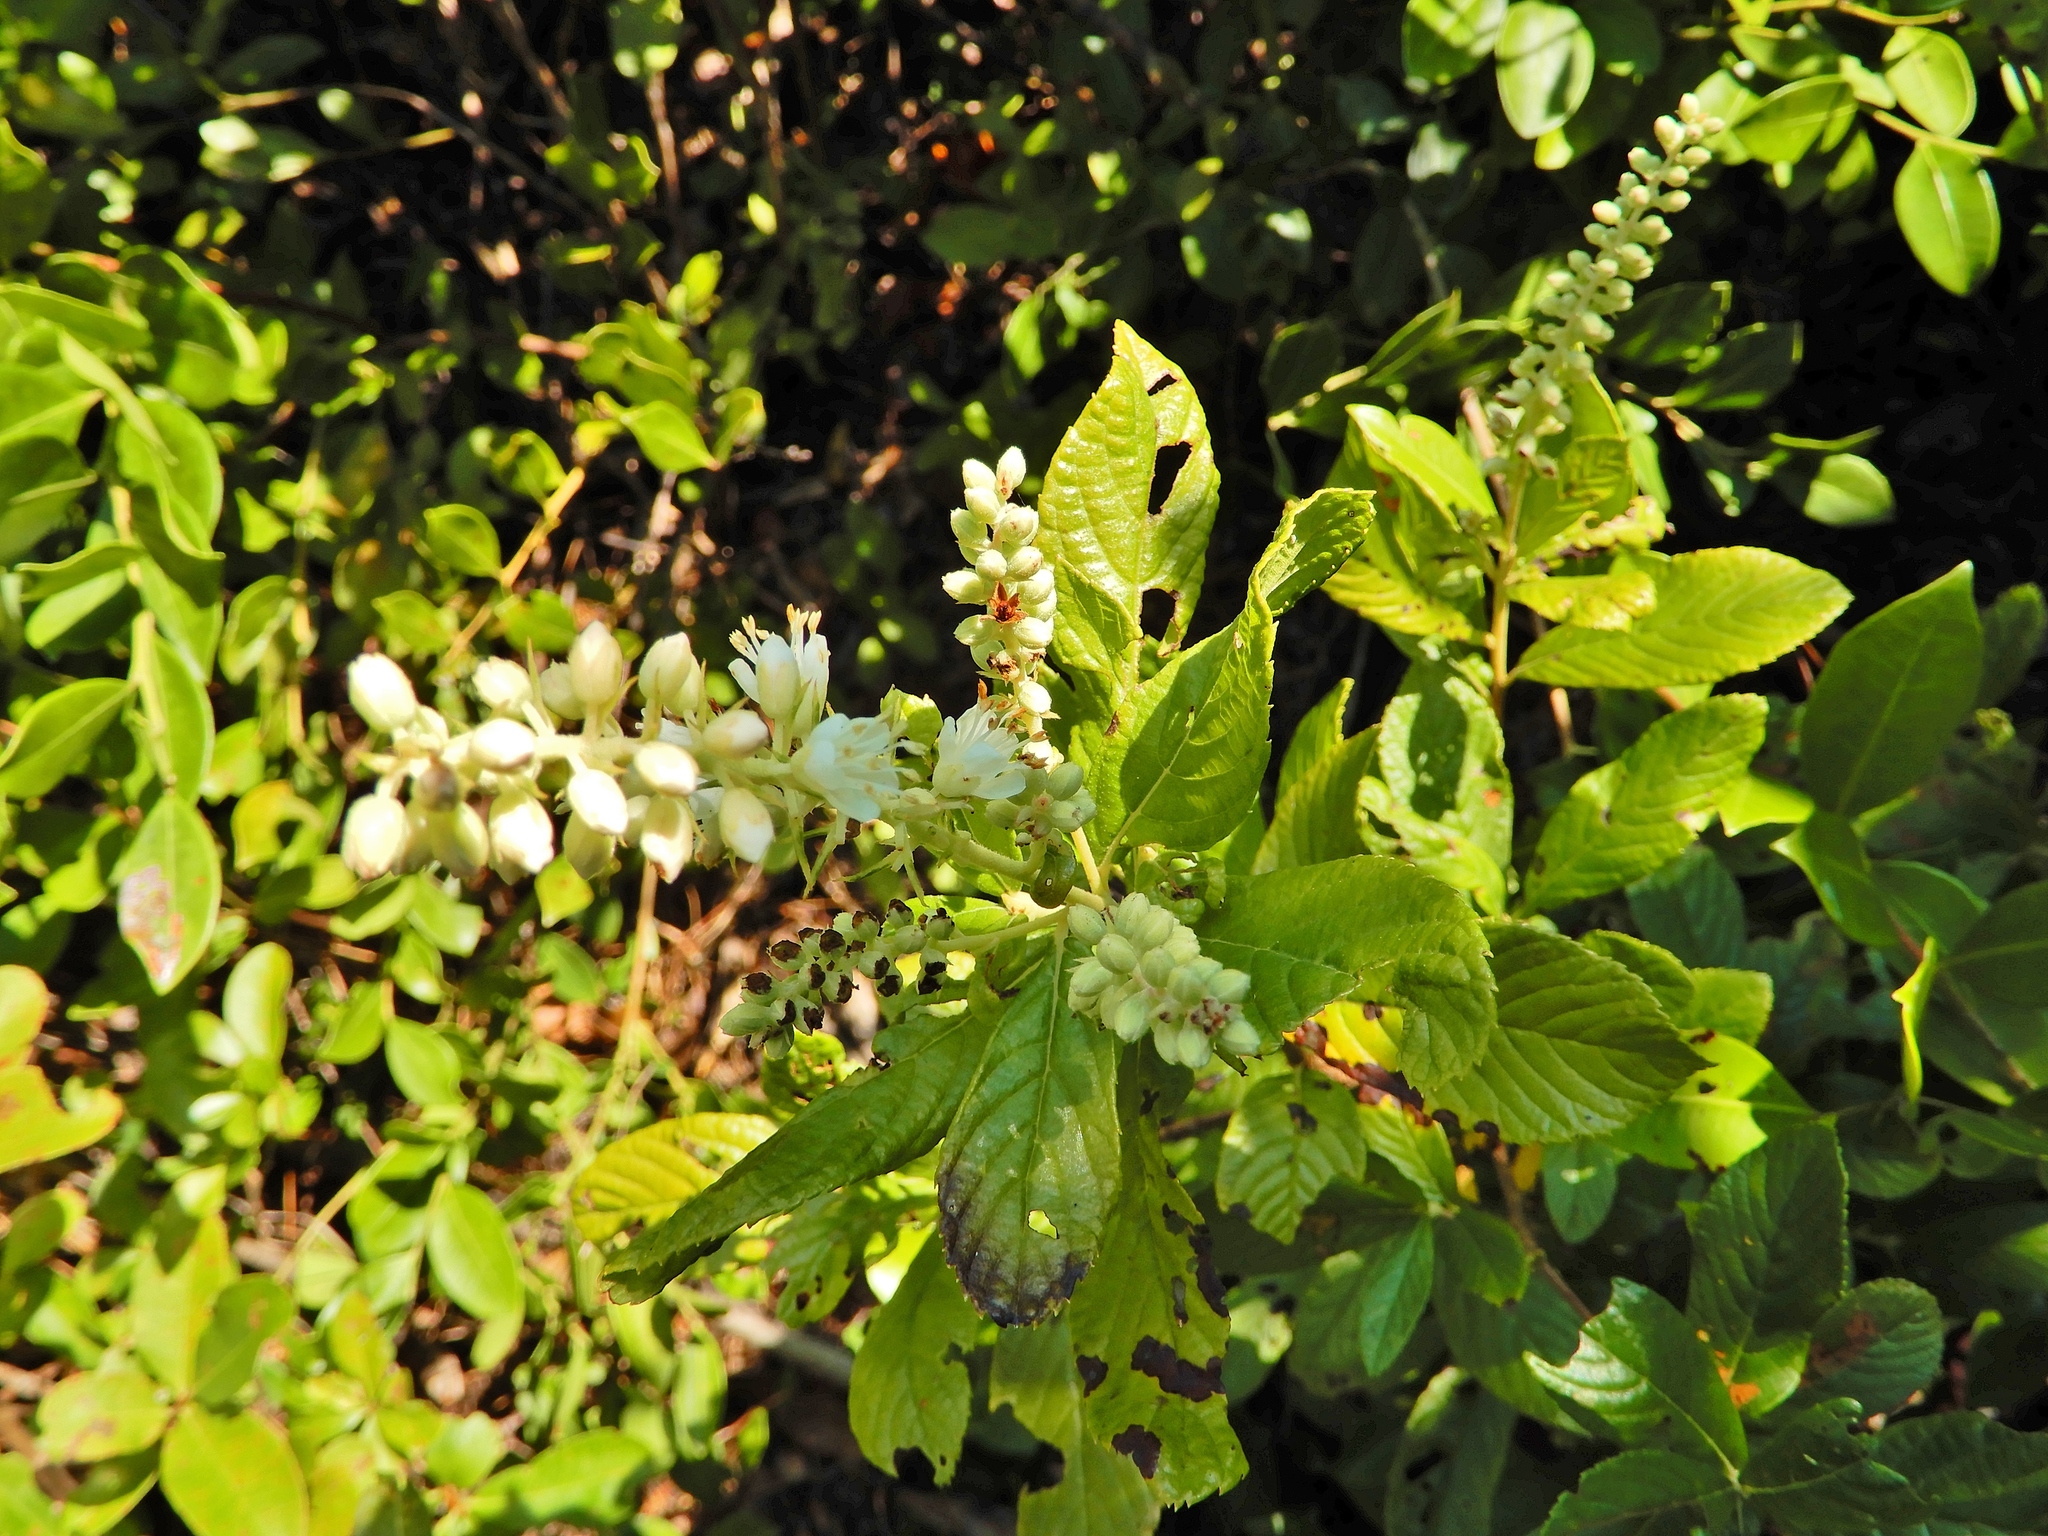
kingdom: Plantae
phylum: Tracheophyta
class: Magnoliopsida
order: Ericales
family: Clethraceae
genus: Clethra
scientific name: Clethra alnifolia
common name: Sweet pepperbush
